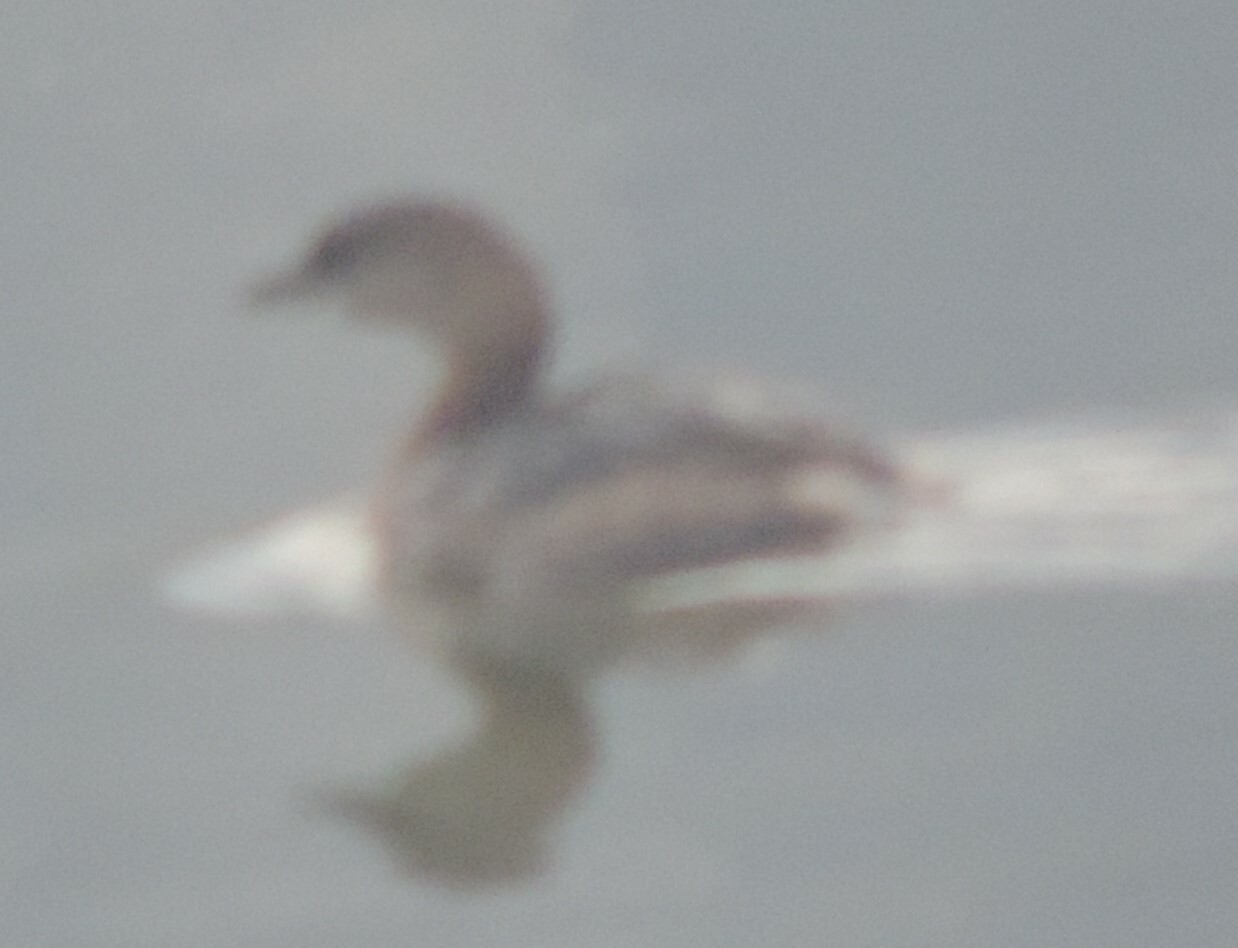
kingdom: Animalia
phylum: Chordata
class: Aves
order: Podicipediformes
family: Podicipedidae
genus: Podilymbus
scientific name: Podilymbus podiceps
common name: Pied-billed grebe
